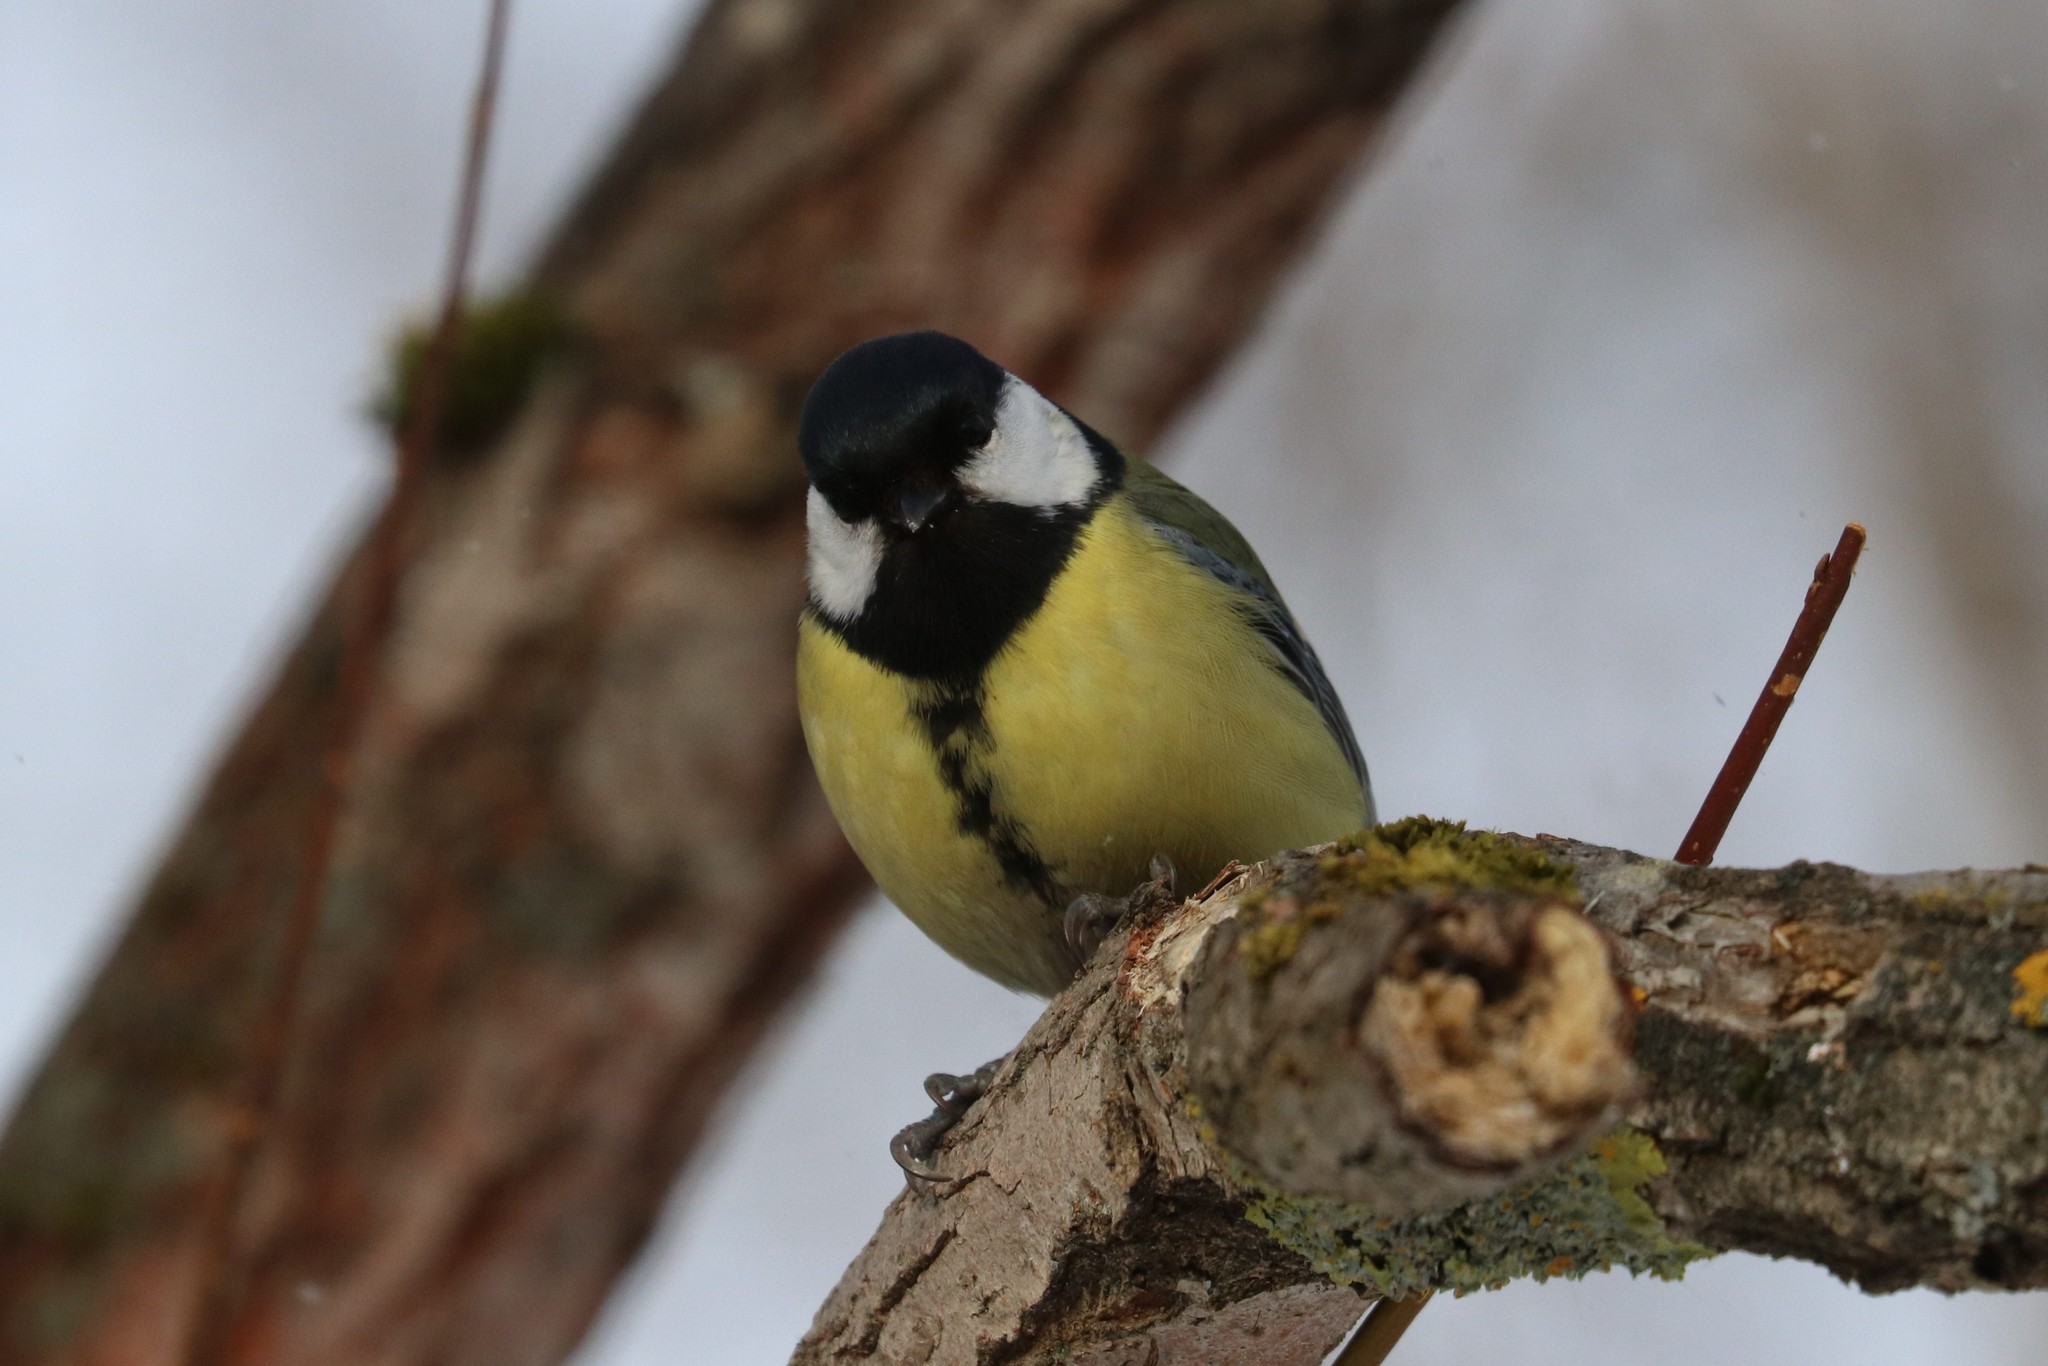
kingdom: Animalia
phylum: Chordata
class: Aves
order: Passeriformes
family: Paridae
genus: Parus
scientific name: Parus major
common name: Great tit
